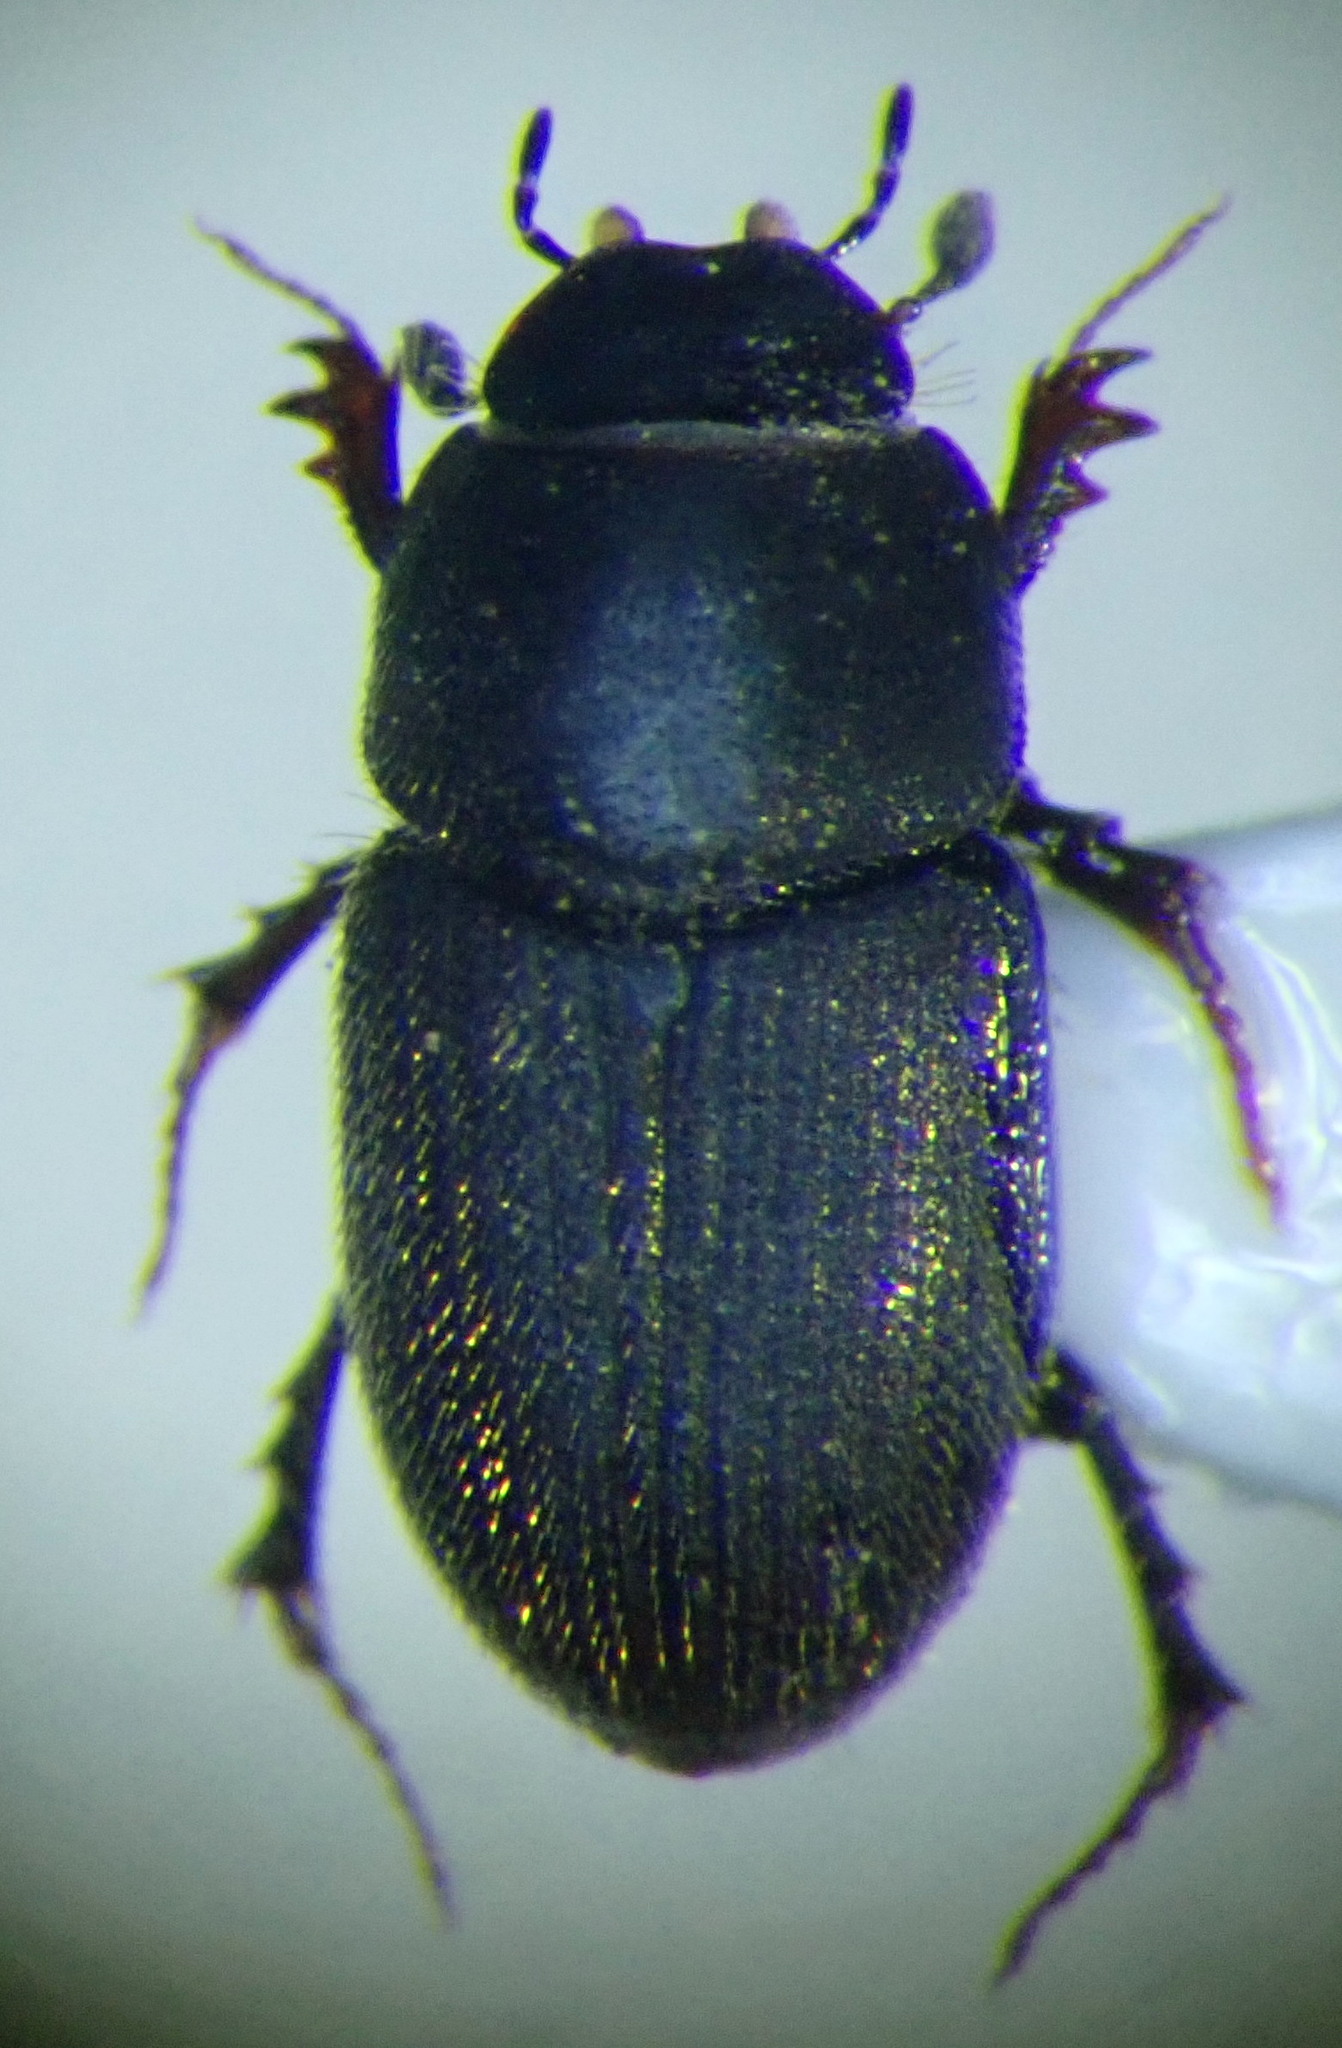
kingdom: Animalia
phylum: Arthropoda
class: Insecta
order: Coleoptera
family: Scarabaeidae
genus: Trichonotulus
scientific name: Trichonotulus scrofa
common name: Sow small dung beetle
